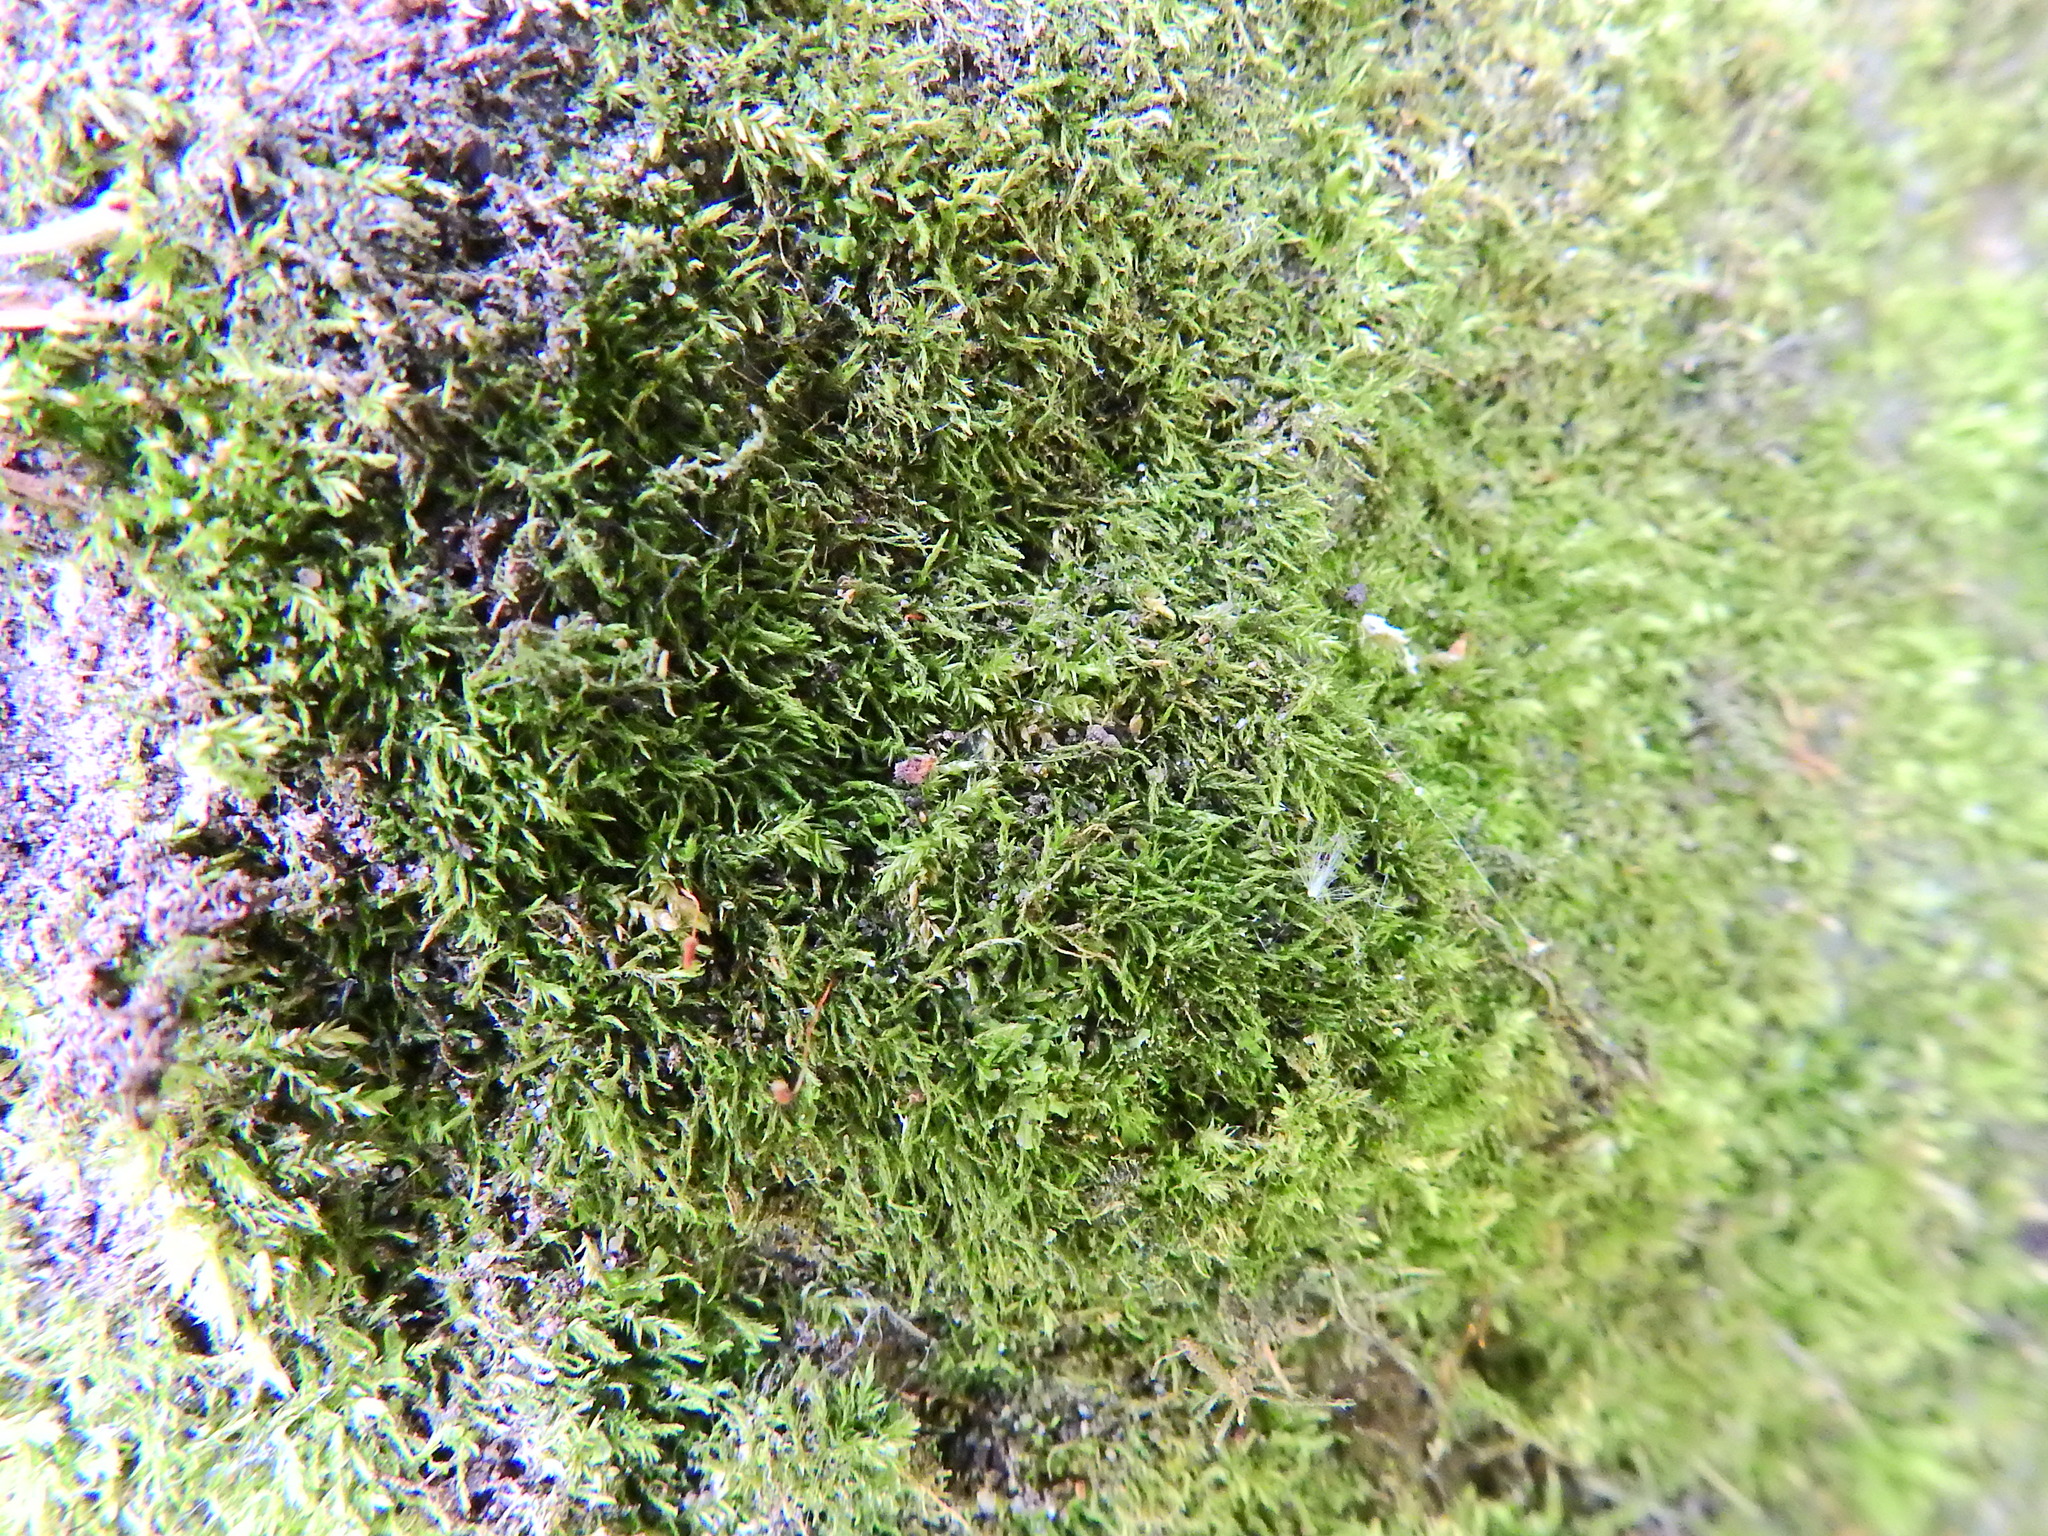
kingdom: Plantae
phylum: Bryophyta
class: Bryopsida
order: Hypnales
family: Amblystegiaceae
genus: Amblystegium
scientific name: Amblystegium serpens
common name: Jurkatzka's feather moss
